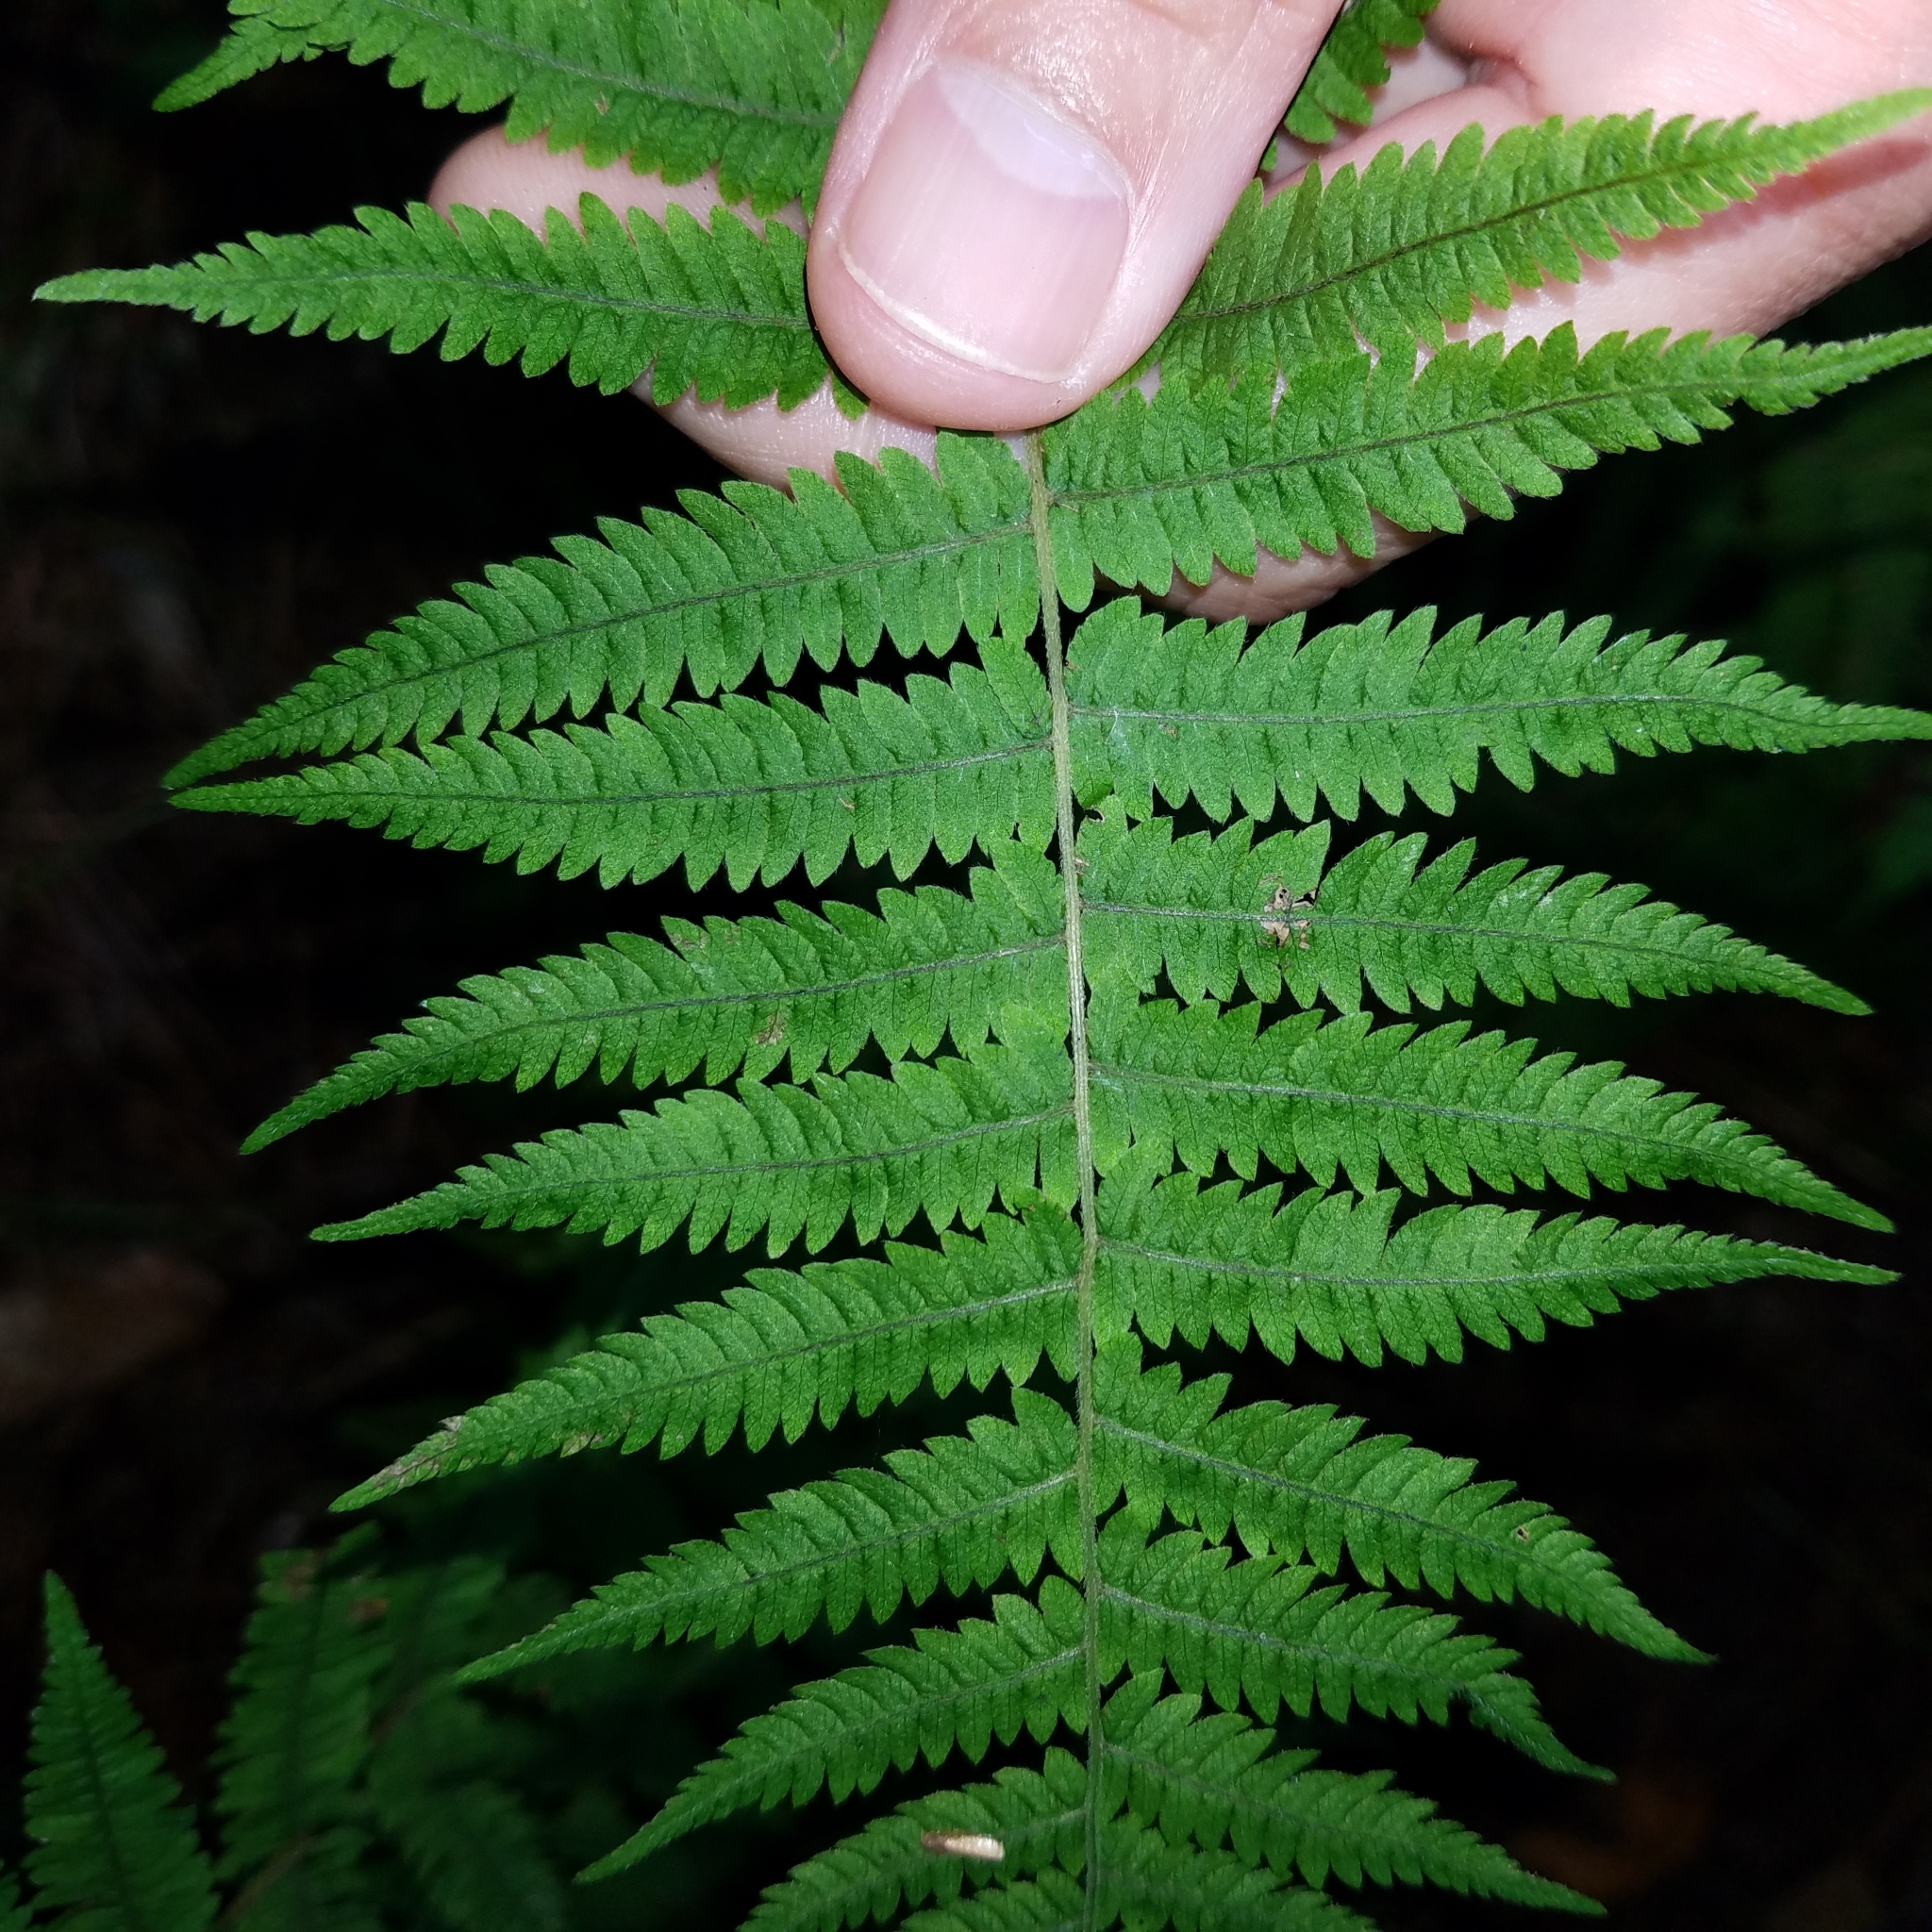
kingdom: Plantae
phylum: Tracheophyta
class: Polypodiopsida
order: Polypodiales
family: Thelypteridaceae
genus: Amauropelta
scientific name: Amauropelta noveboracensis
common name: New york fern
